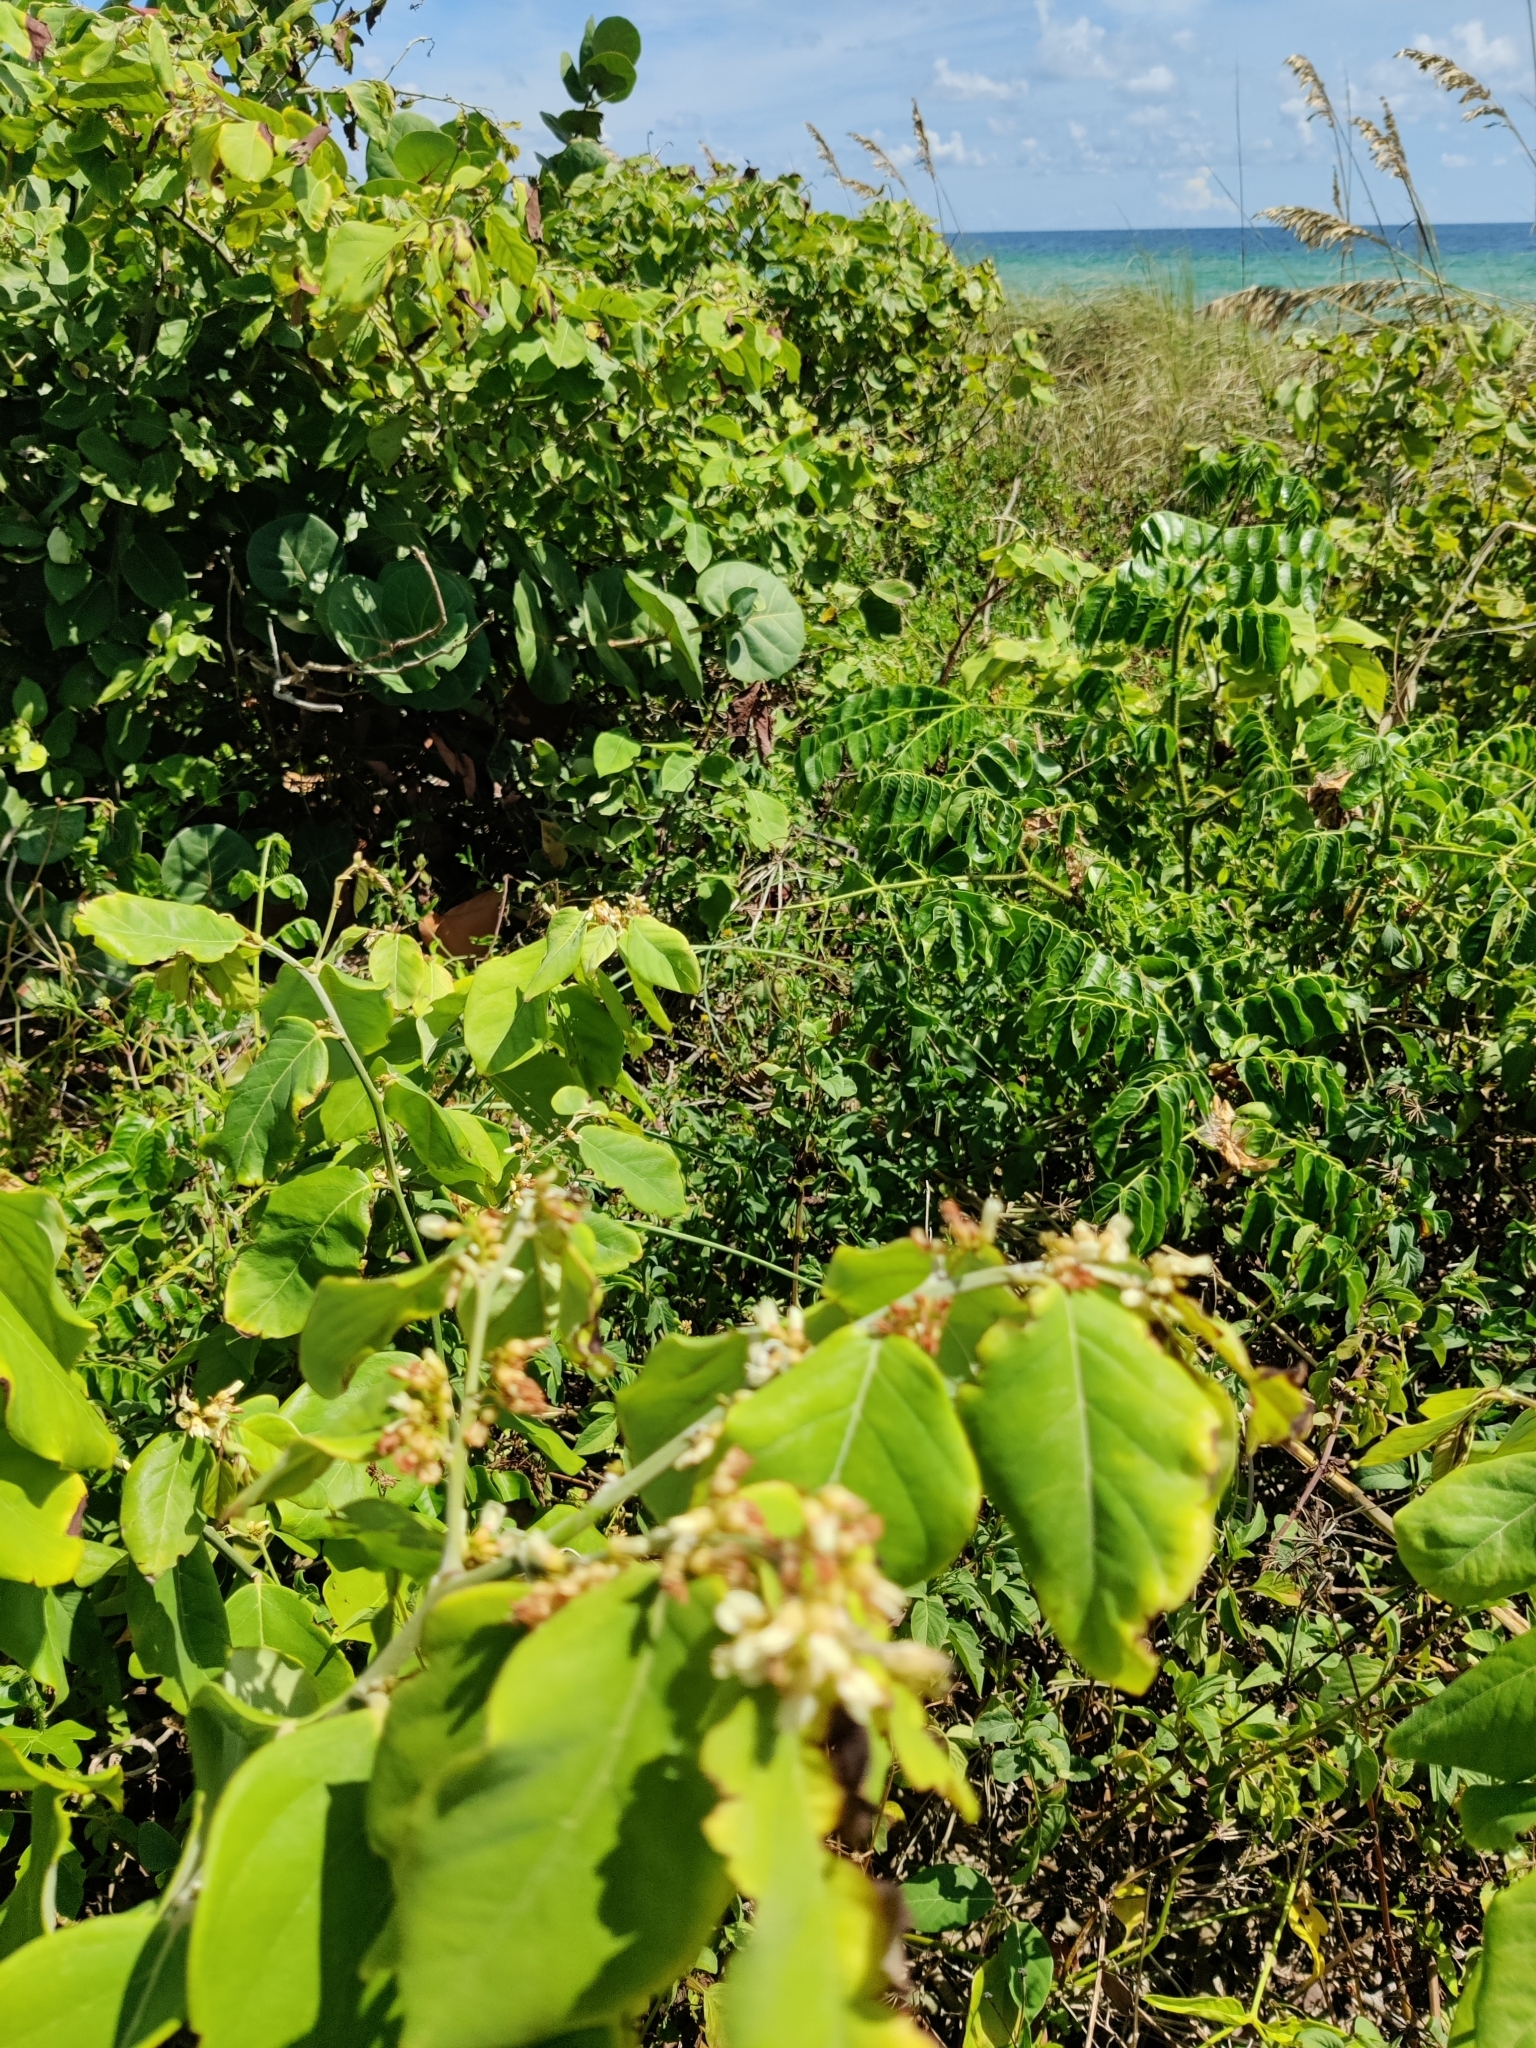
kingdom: Plantae
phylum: Tracheophyta
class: Magnoliopsida
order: Fabales
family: Fabaceae
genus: Dalbergia
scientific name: Dalbergia ecastaphyllum
